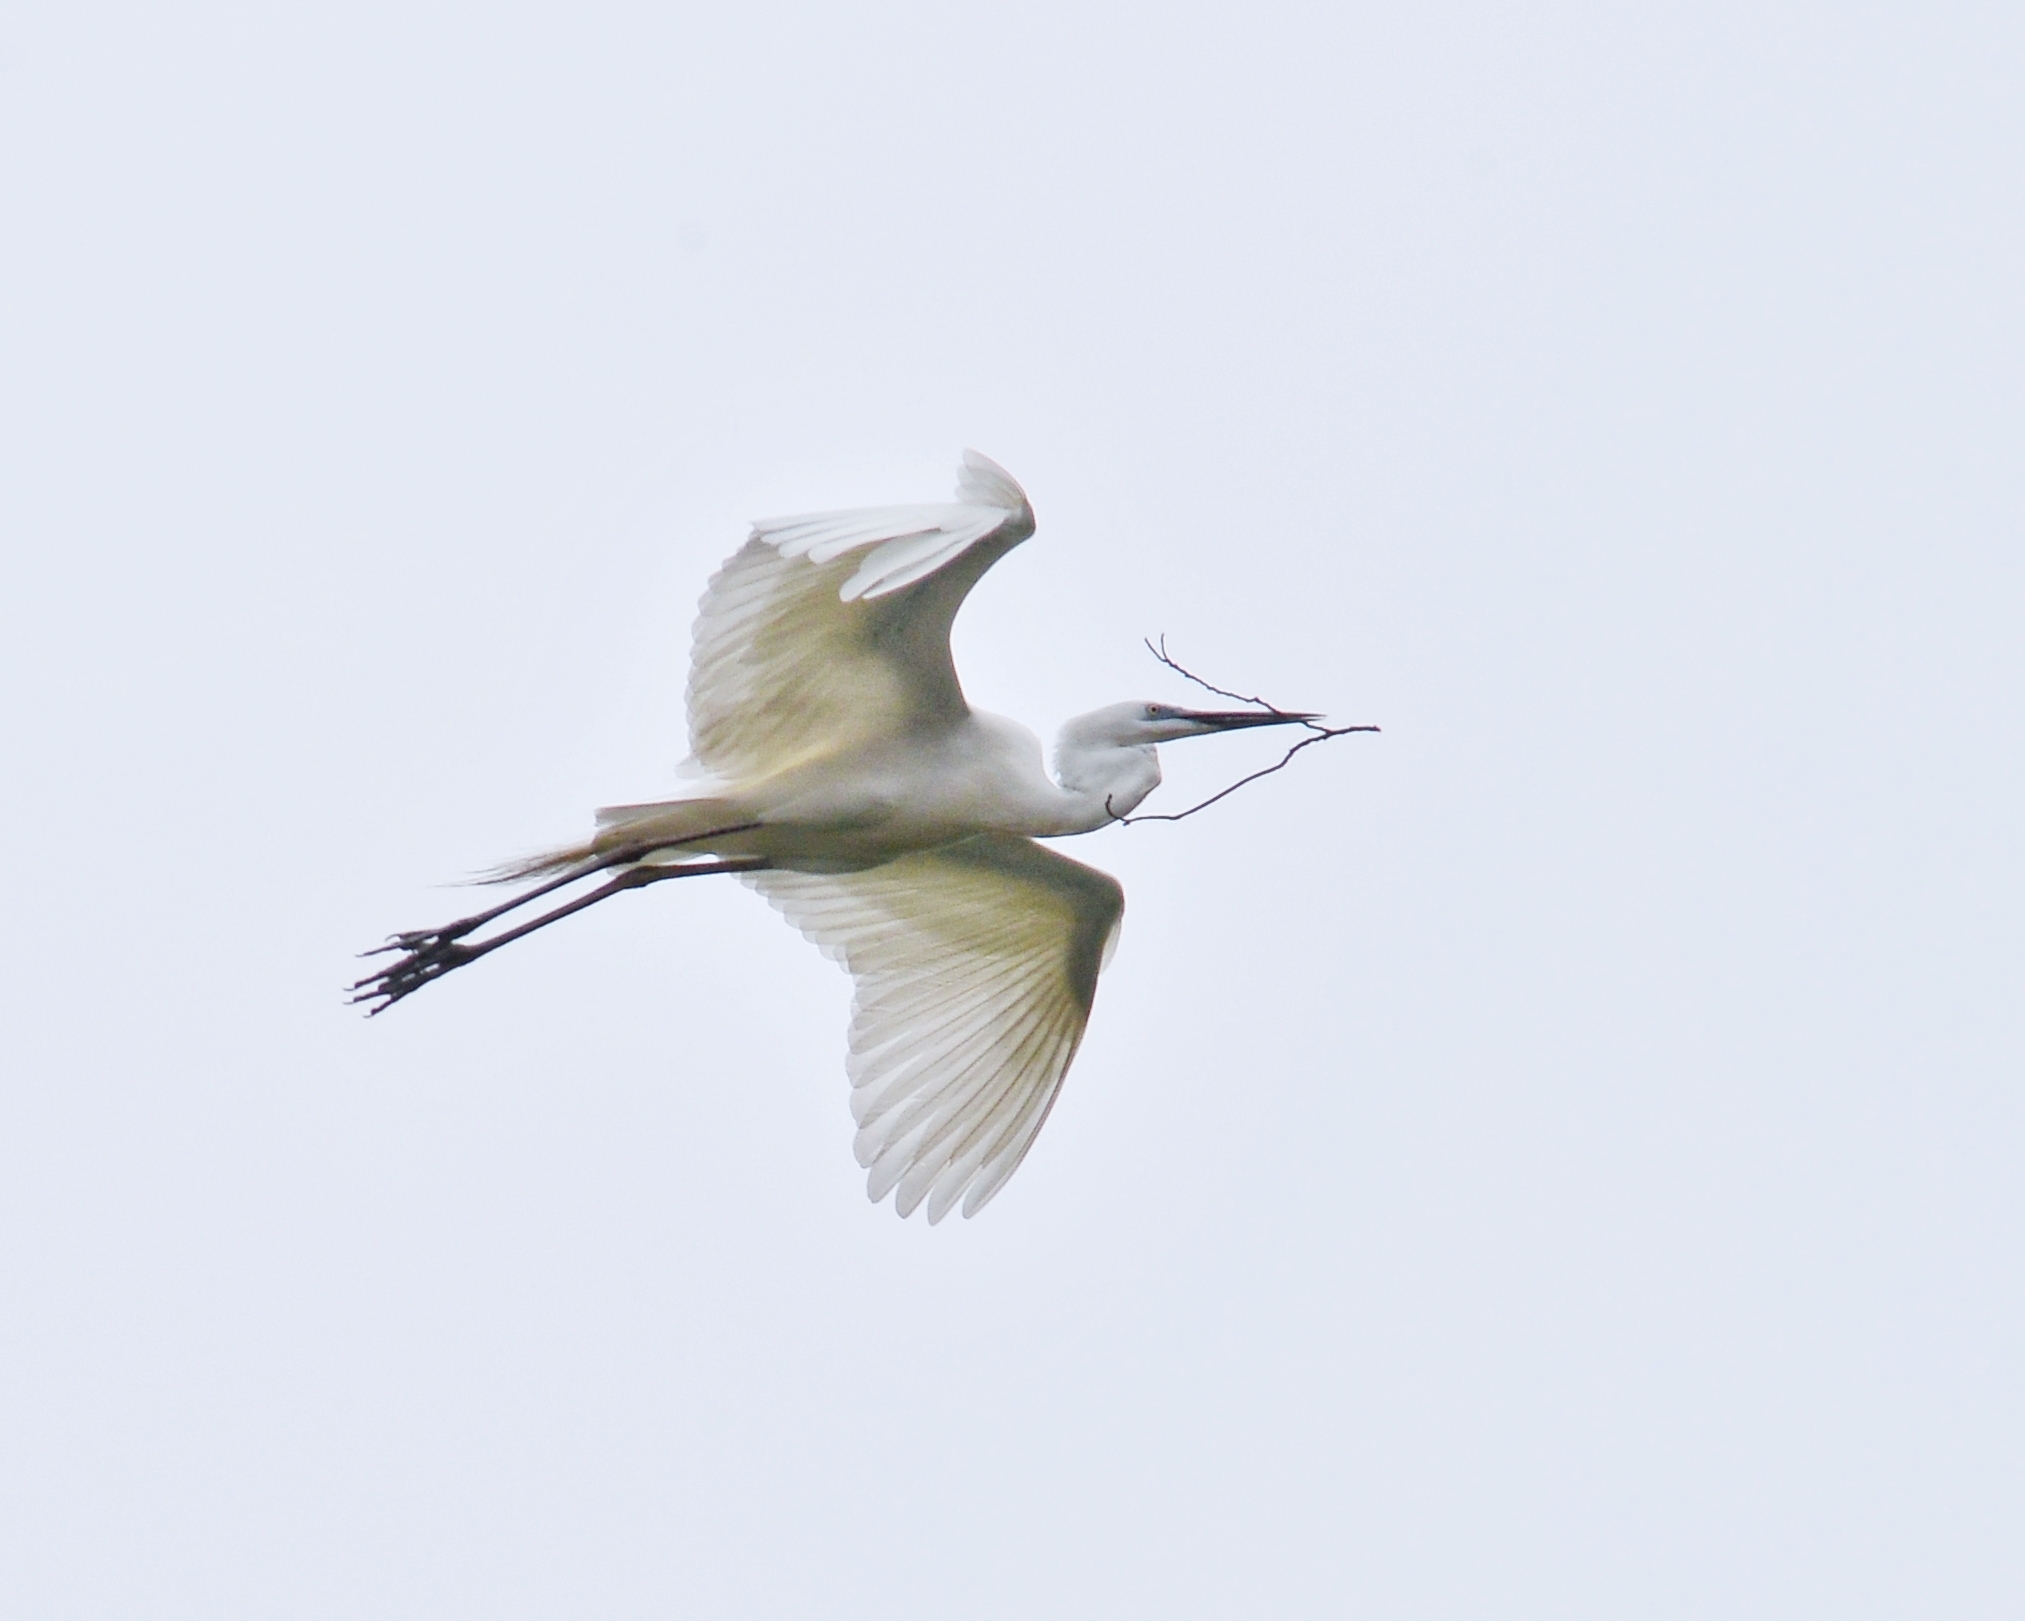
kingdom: Animalia
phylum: Chordata
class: Aves
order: Pelecaniformes
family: Ardeidae
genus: Ardea
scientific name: Ardea alba
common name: Great egret
